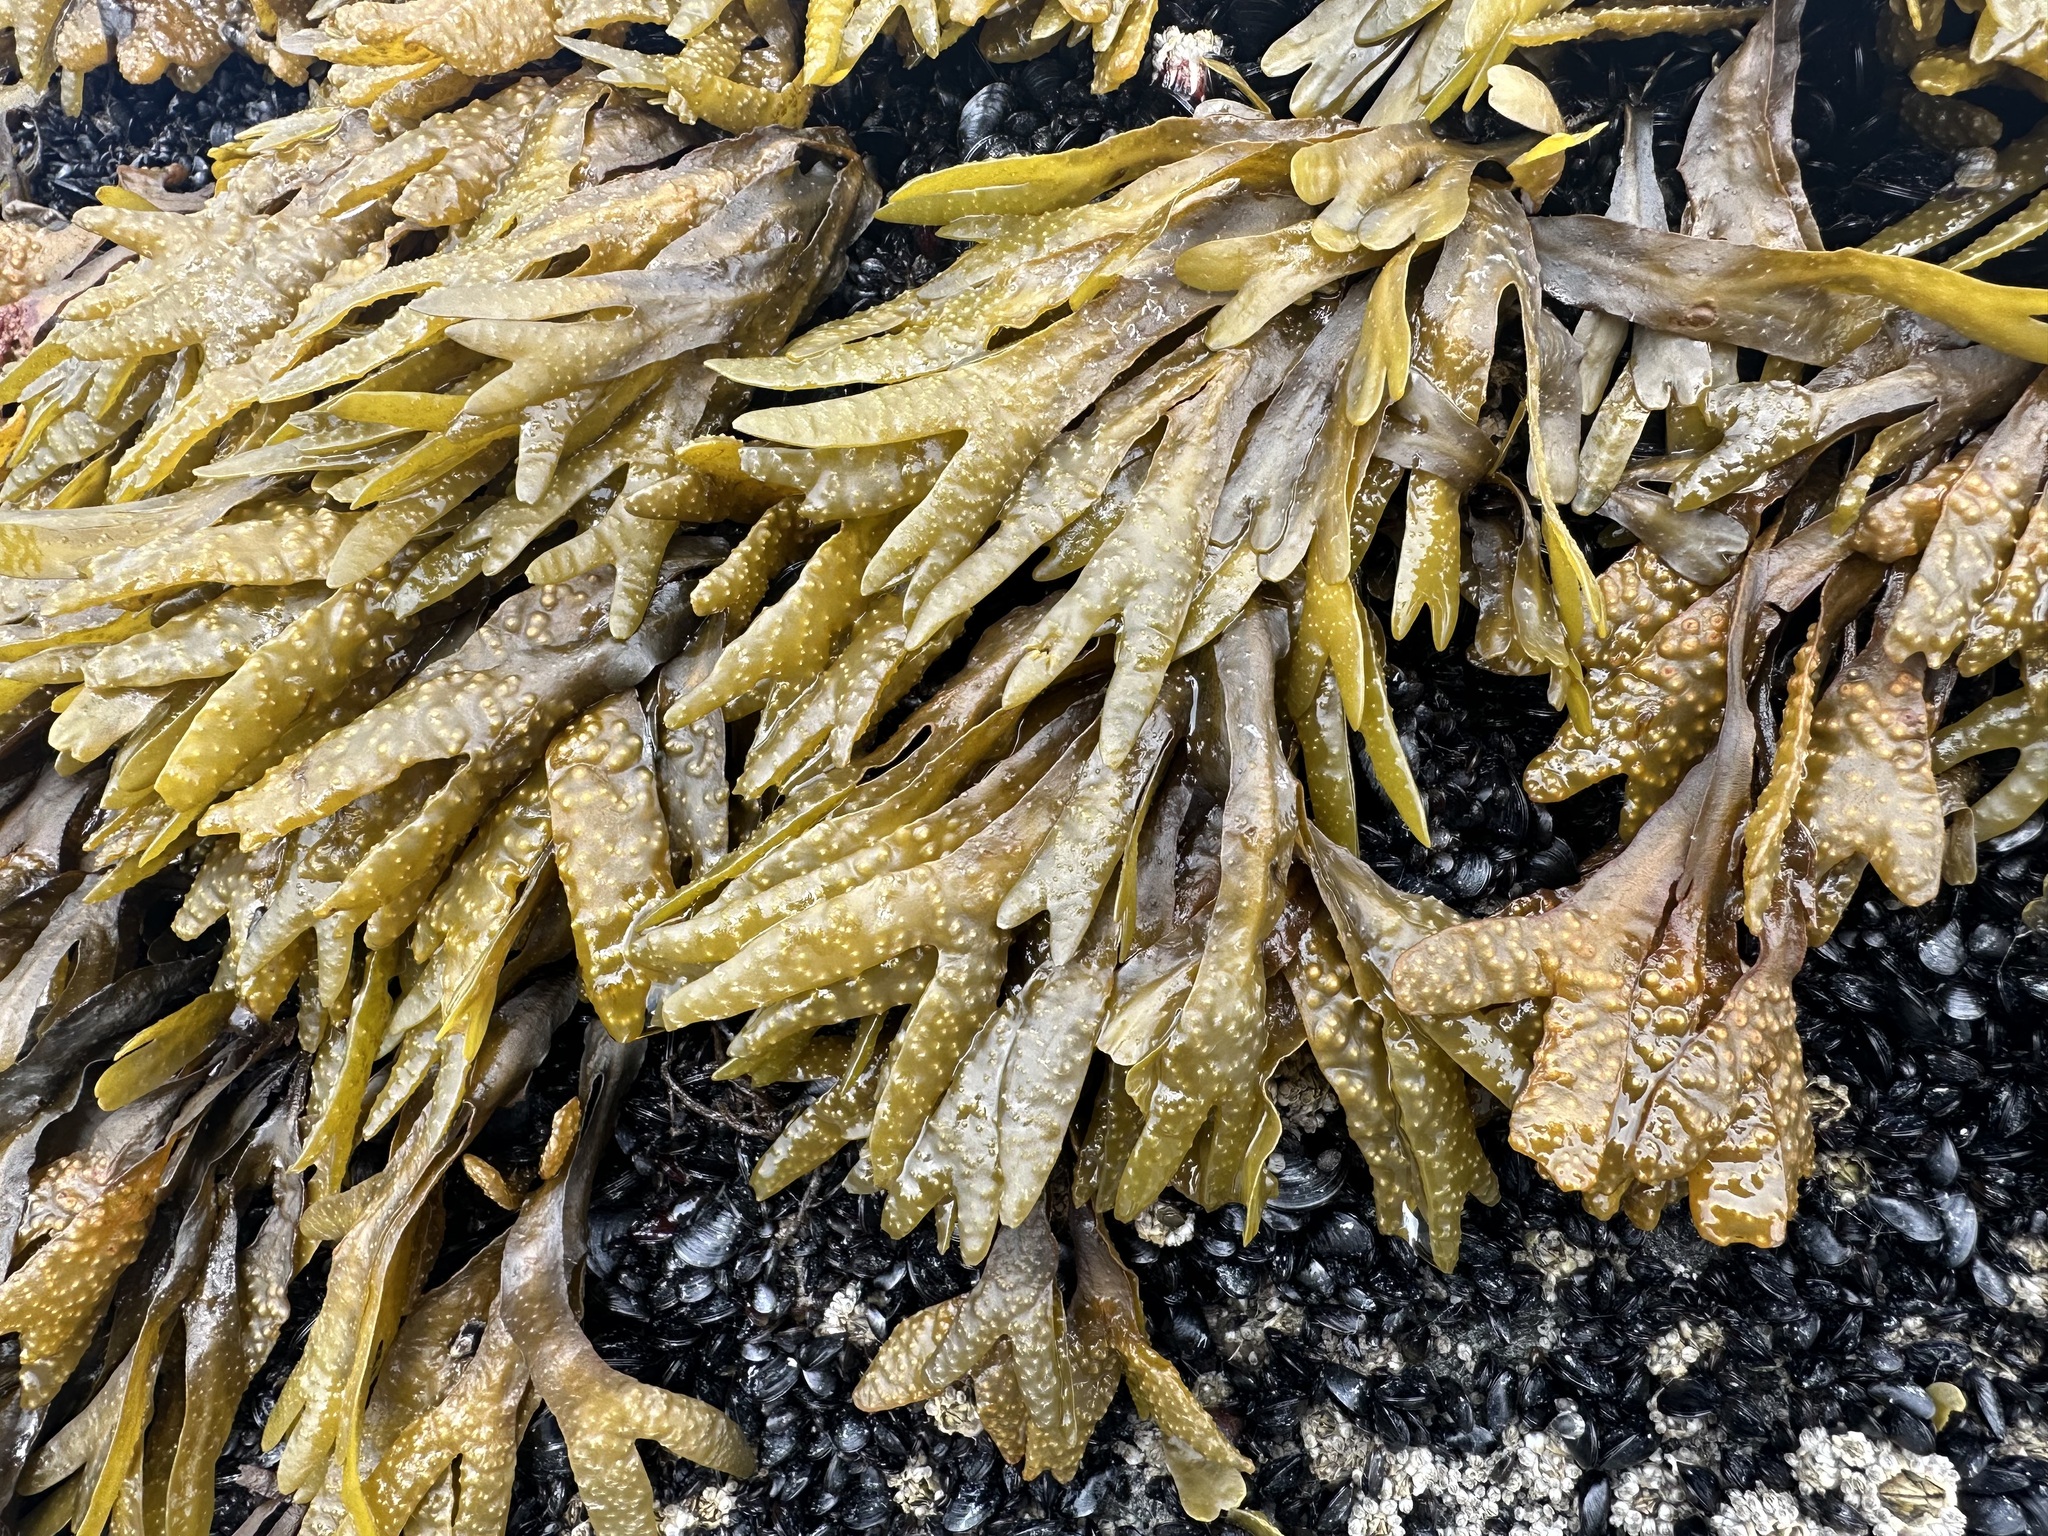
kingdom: Chromista
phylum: Ochrophyta
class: Phaeophyceae
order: Fucales
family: Fucaceae
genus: Fucus
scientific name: Fucus distichus
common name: Rockweed
